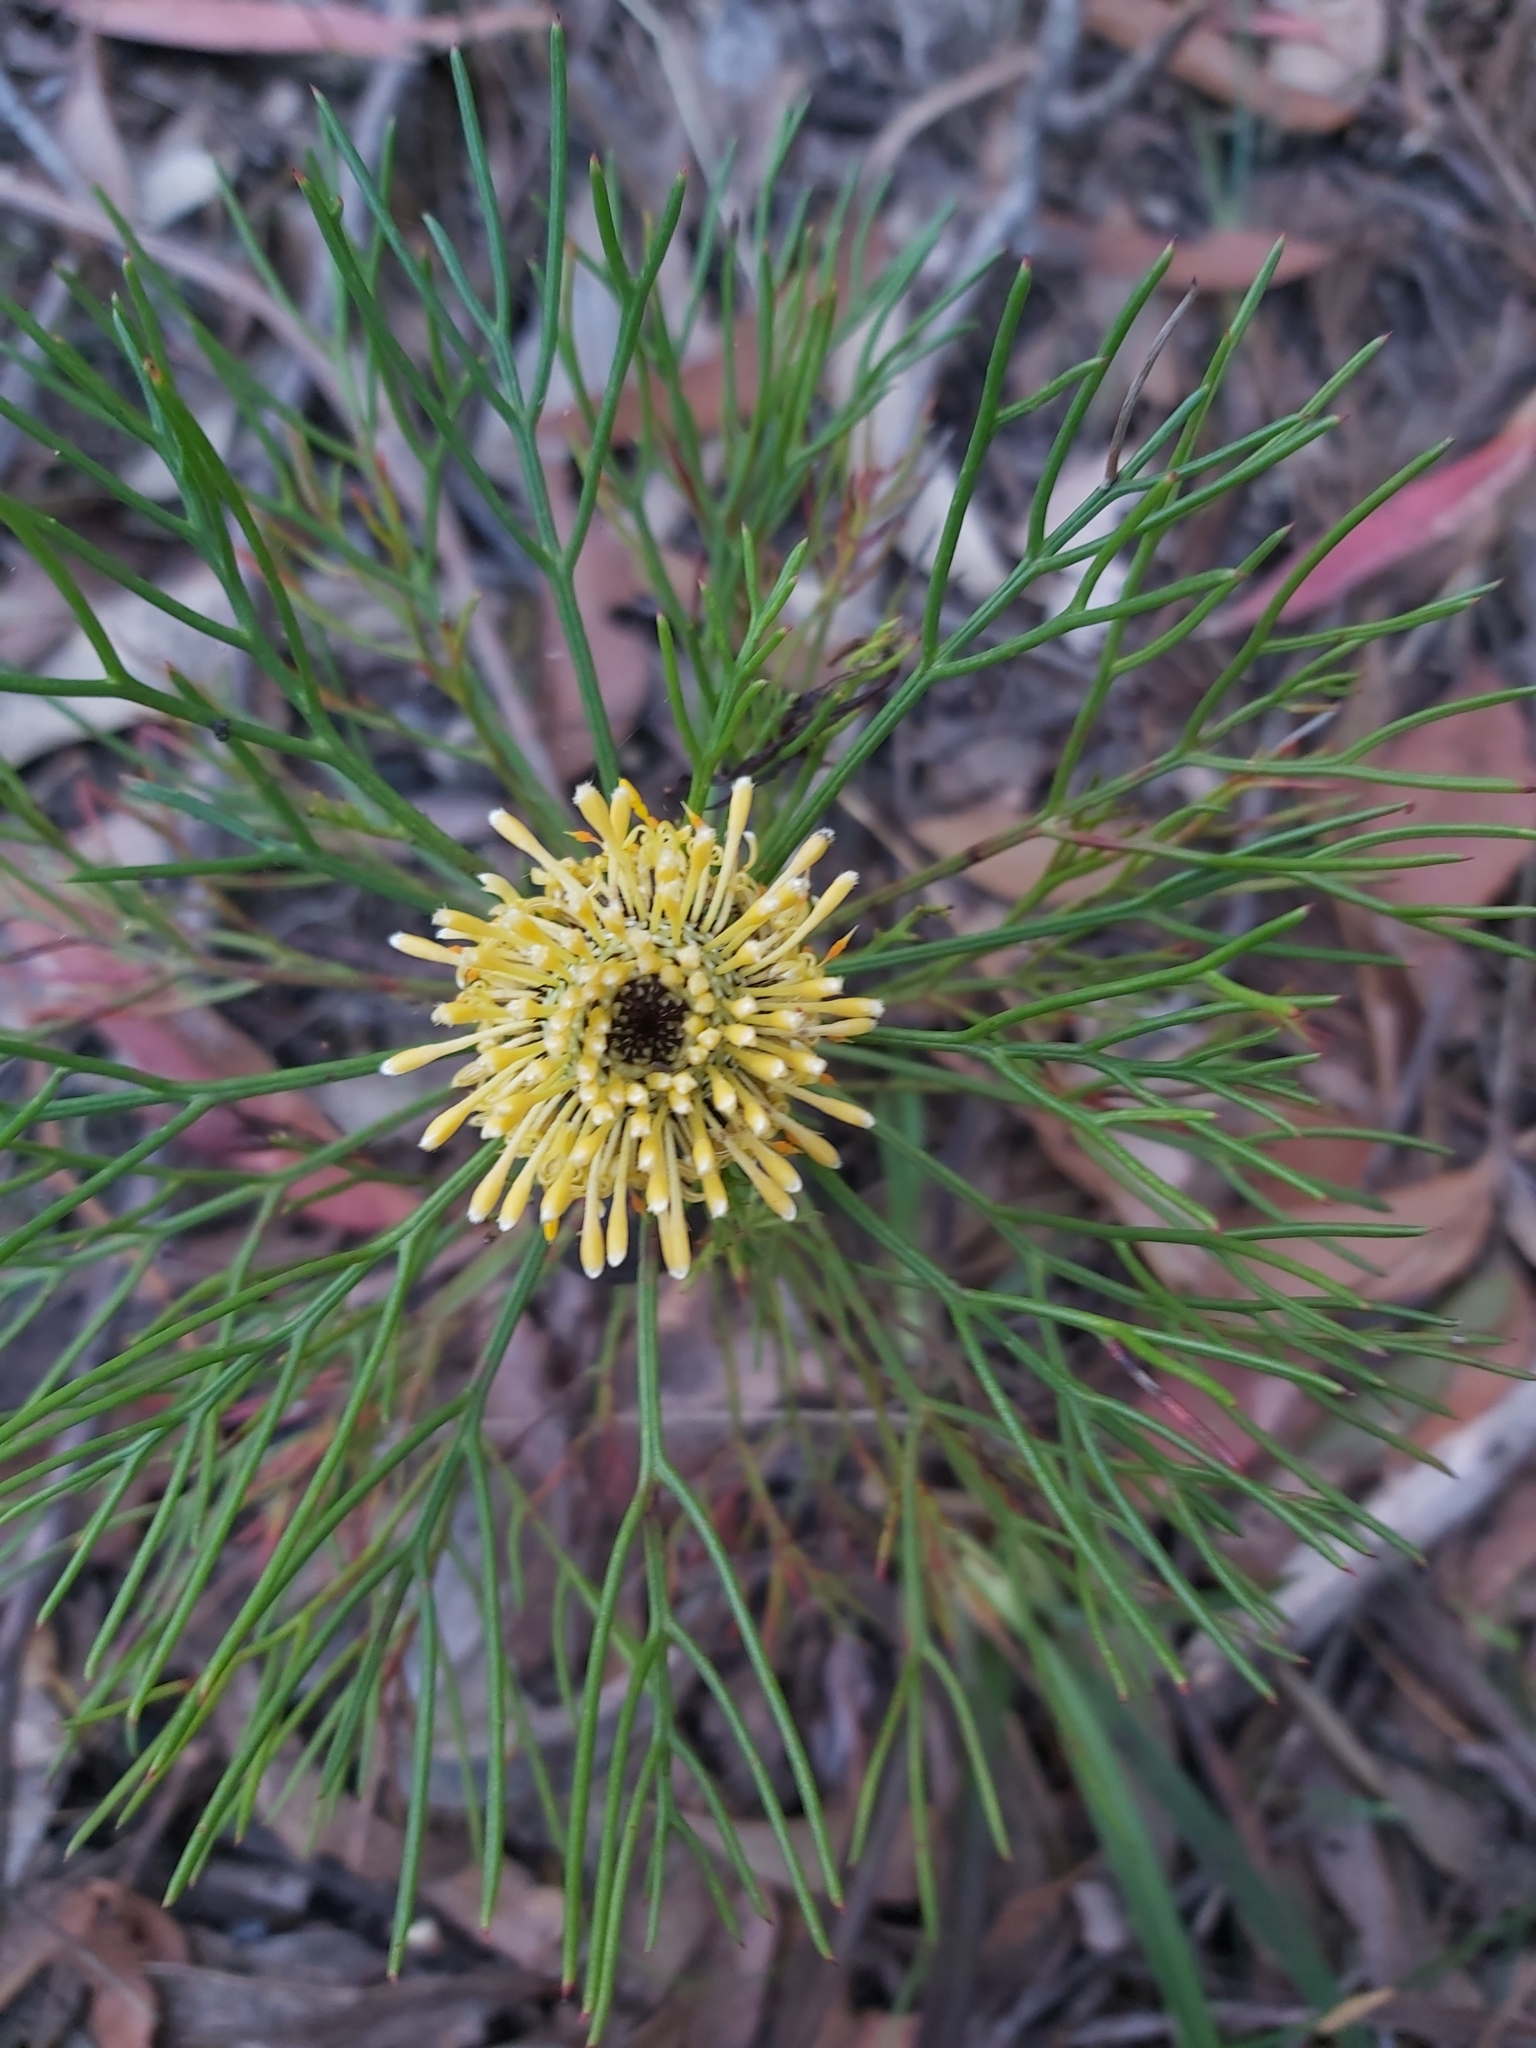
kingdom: Plantae
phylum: Tracheophyta
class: Magnoliopsida
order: Proteales
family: Proteaceae
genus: Isopogon
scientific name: Isopogon anethifolius
